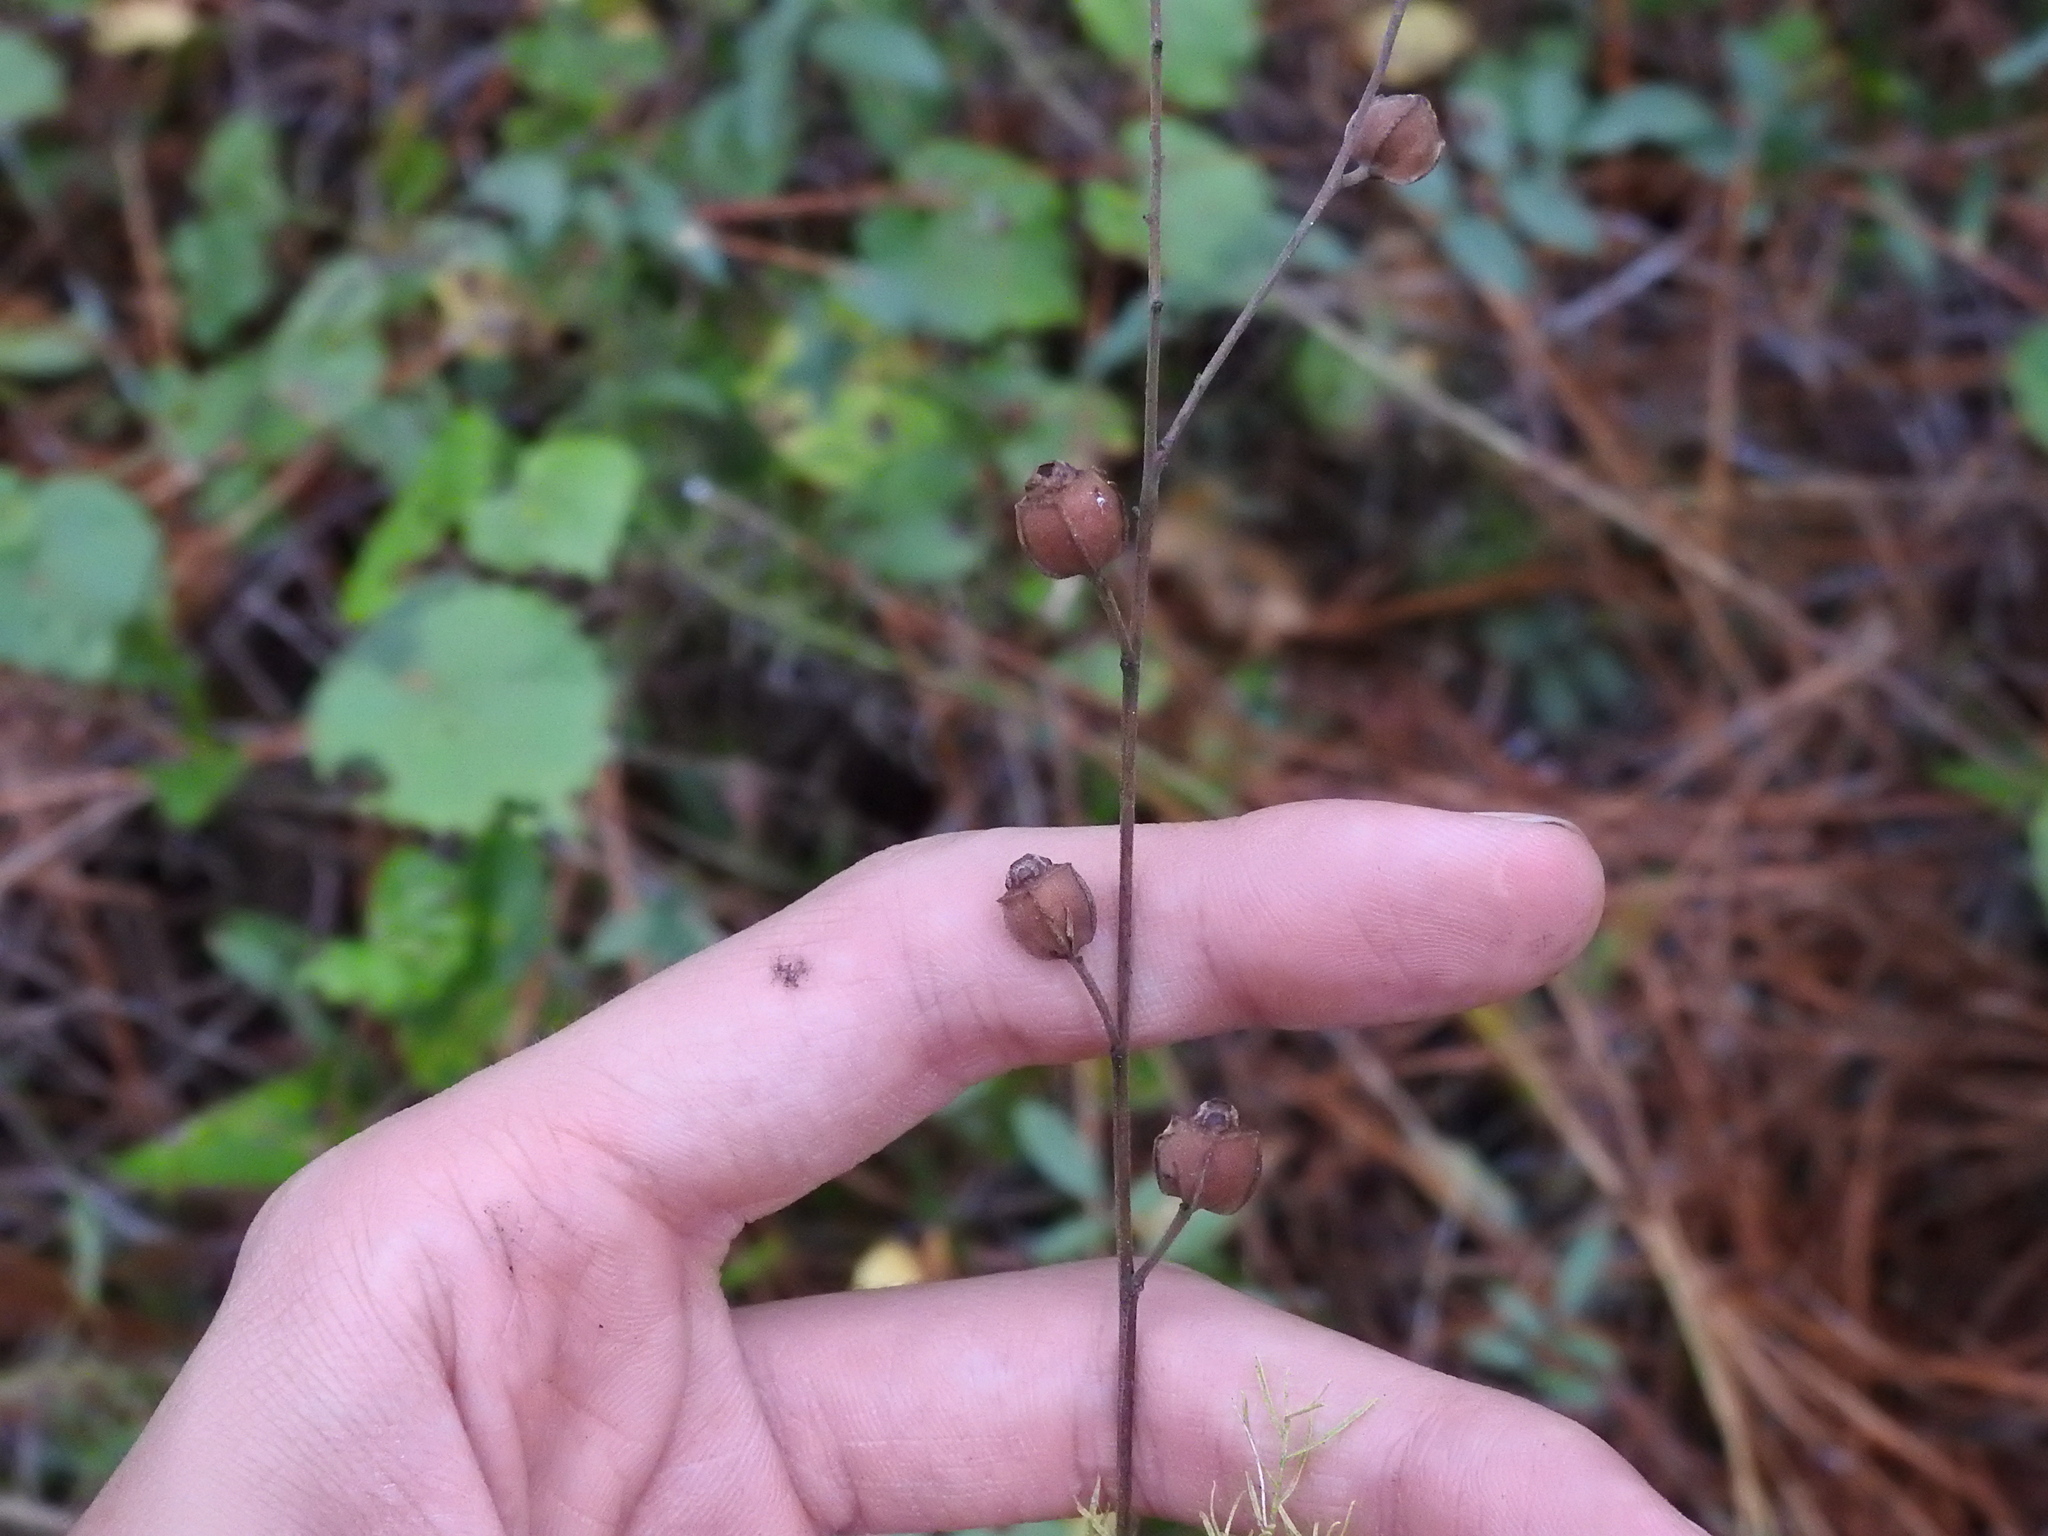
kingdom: Plantae
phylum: Tracheophyta
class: Magnoliopsida
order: Myrtales
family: Onagraceae
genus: Ludwigia
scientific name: Ludwigia maritima
